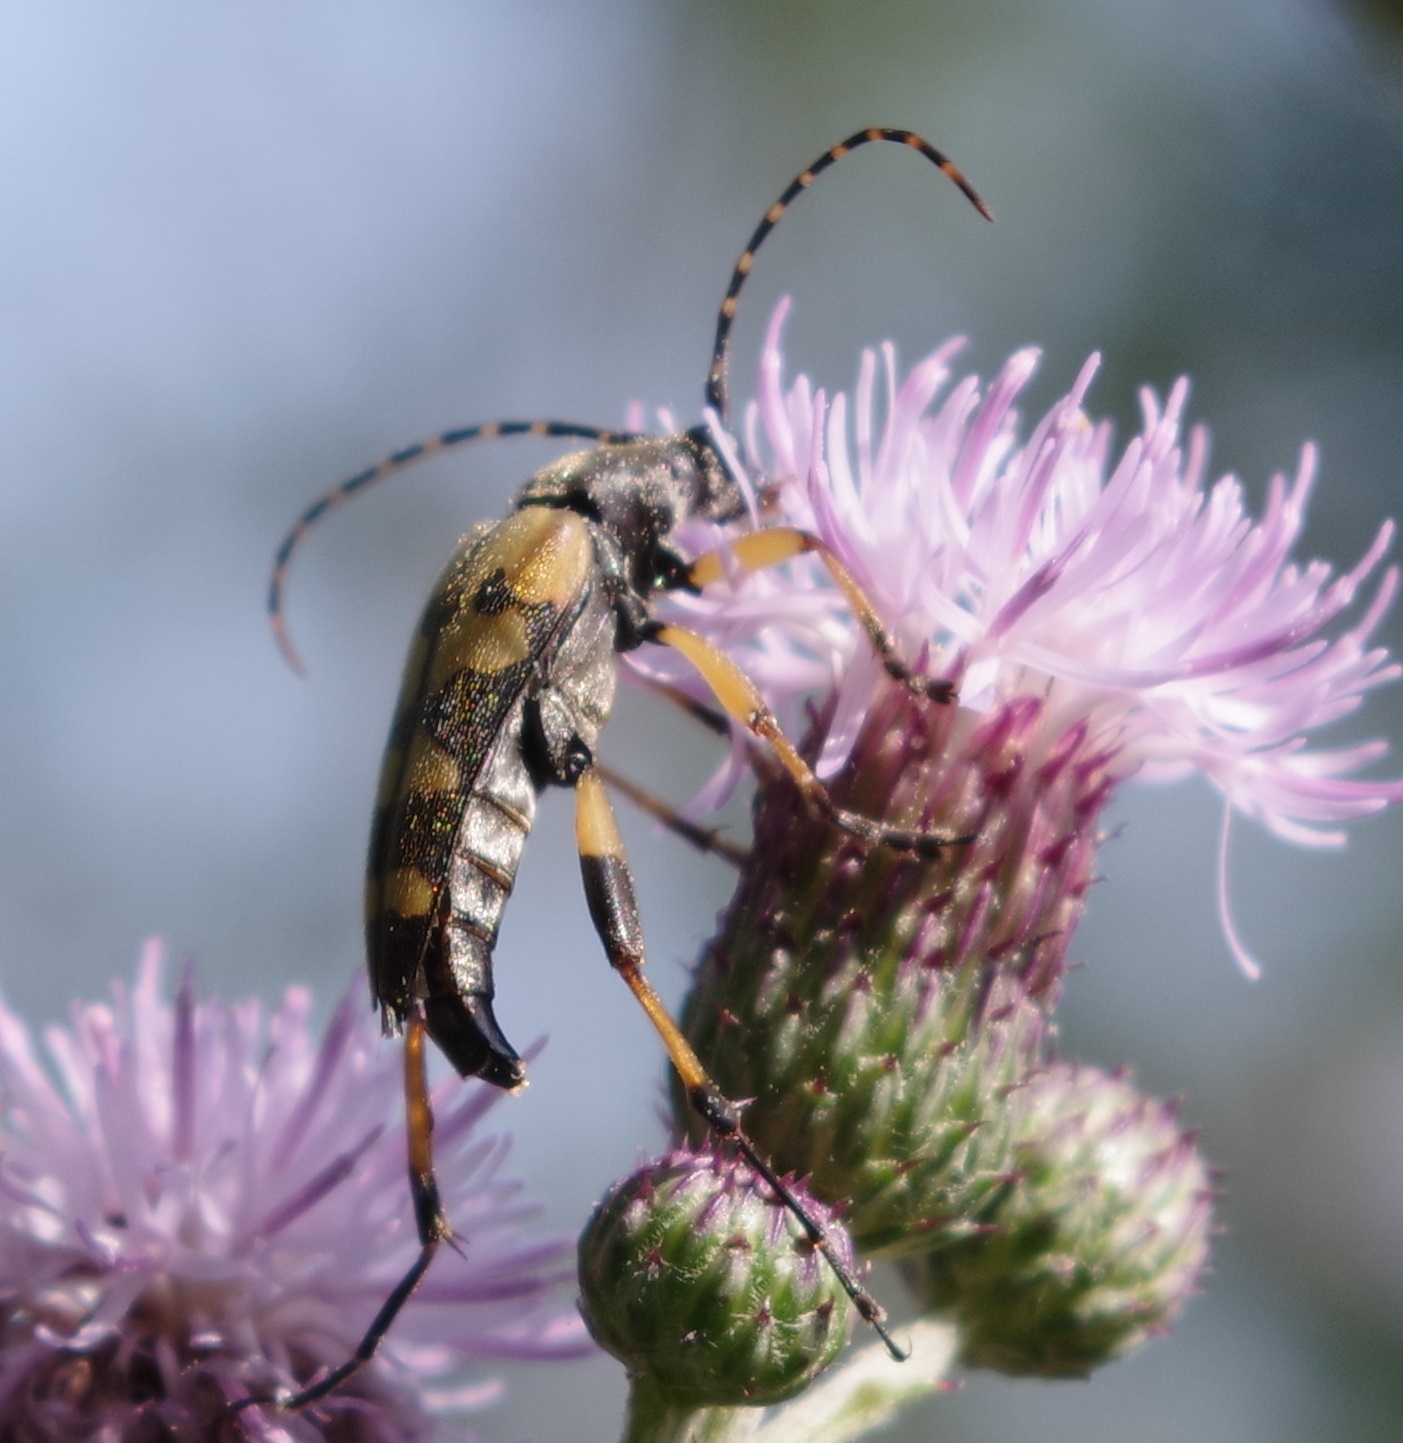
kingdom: Animalia
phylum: Arthropoda
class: Insecta
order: Coleoptera
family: Cerambycidae
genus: Rutpela
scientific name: Rutpela maculata
